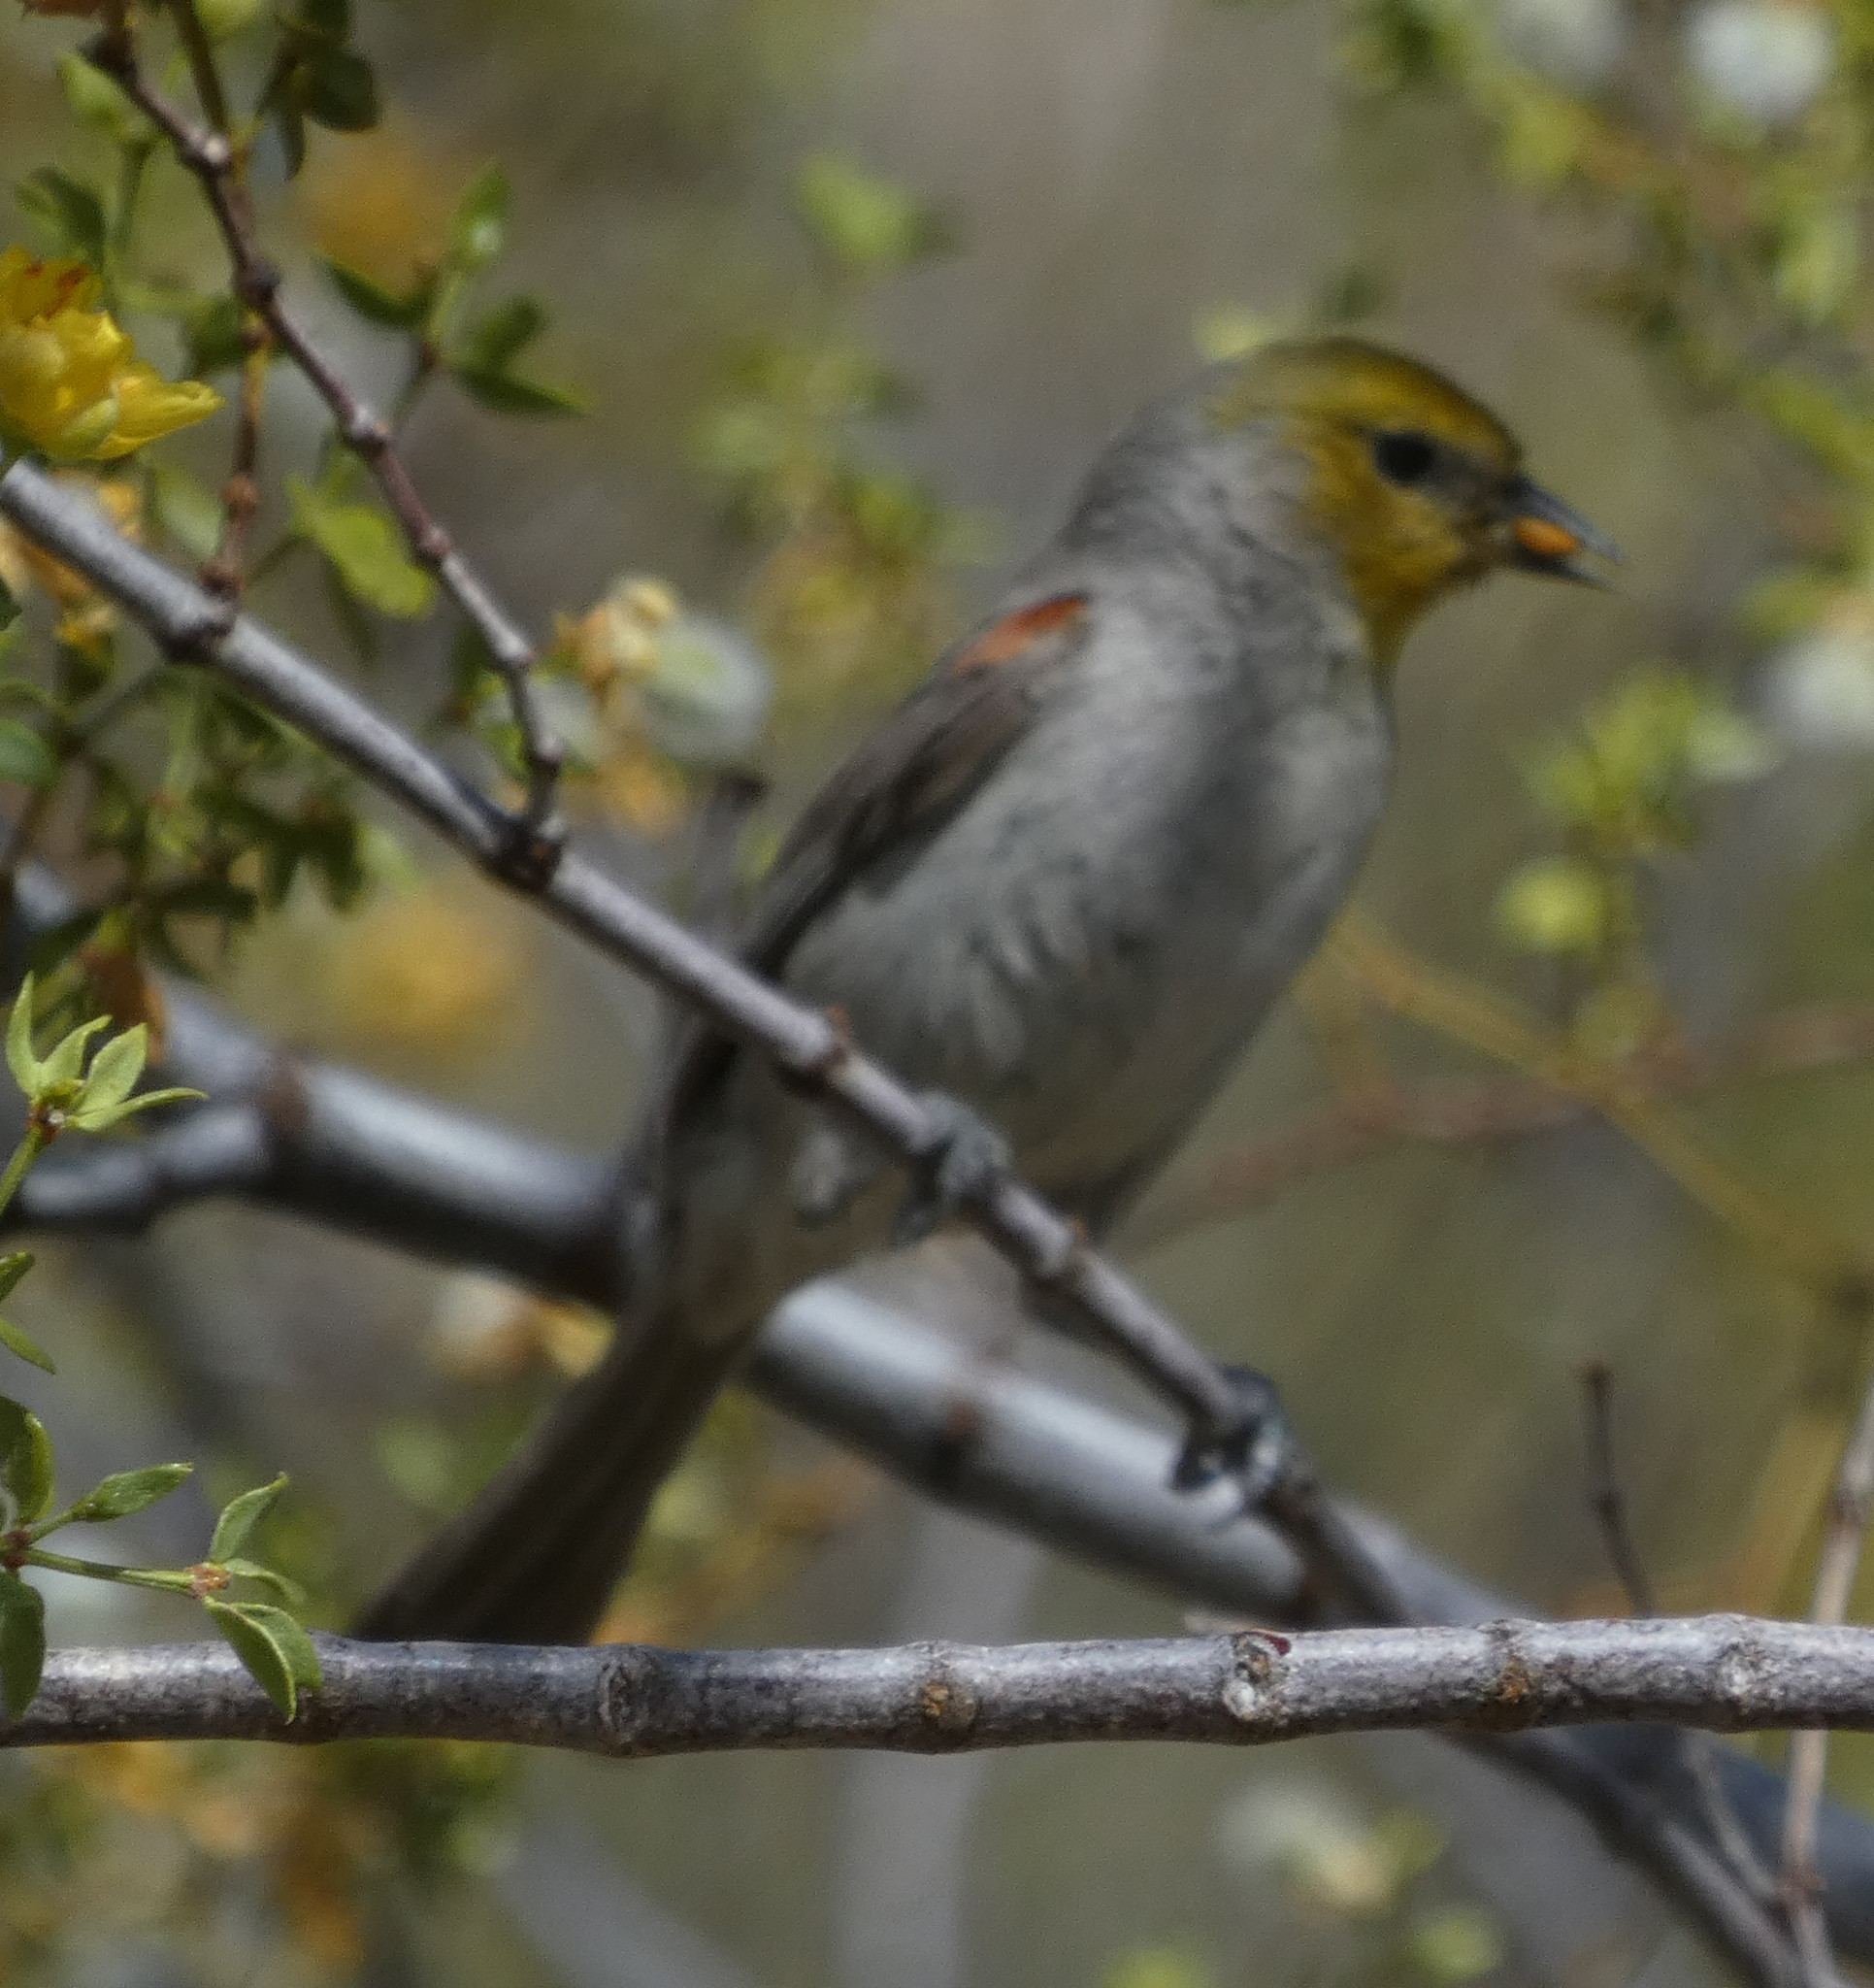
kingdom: Animalia
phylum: Chordata
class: Aves
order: Passeriformes
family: Remizidae
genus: Auriparus
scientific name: Auriparus flaviceps
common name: Verdin
